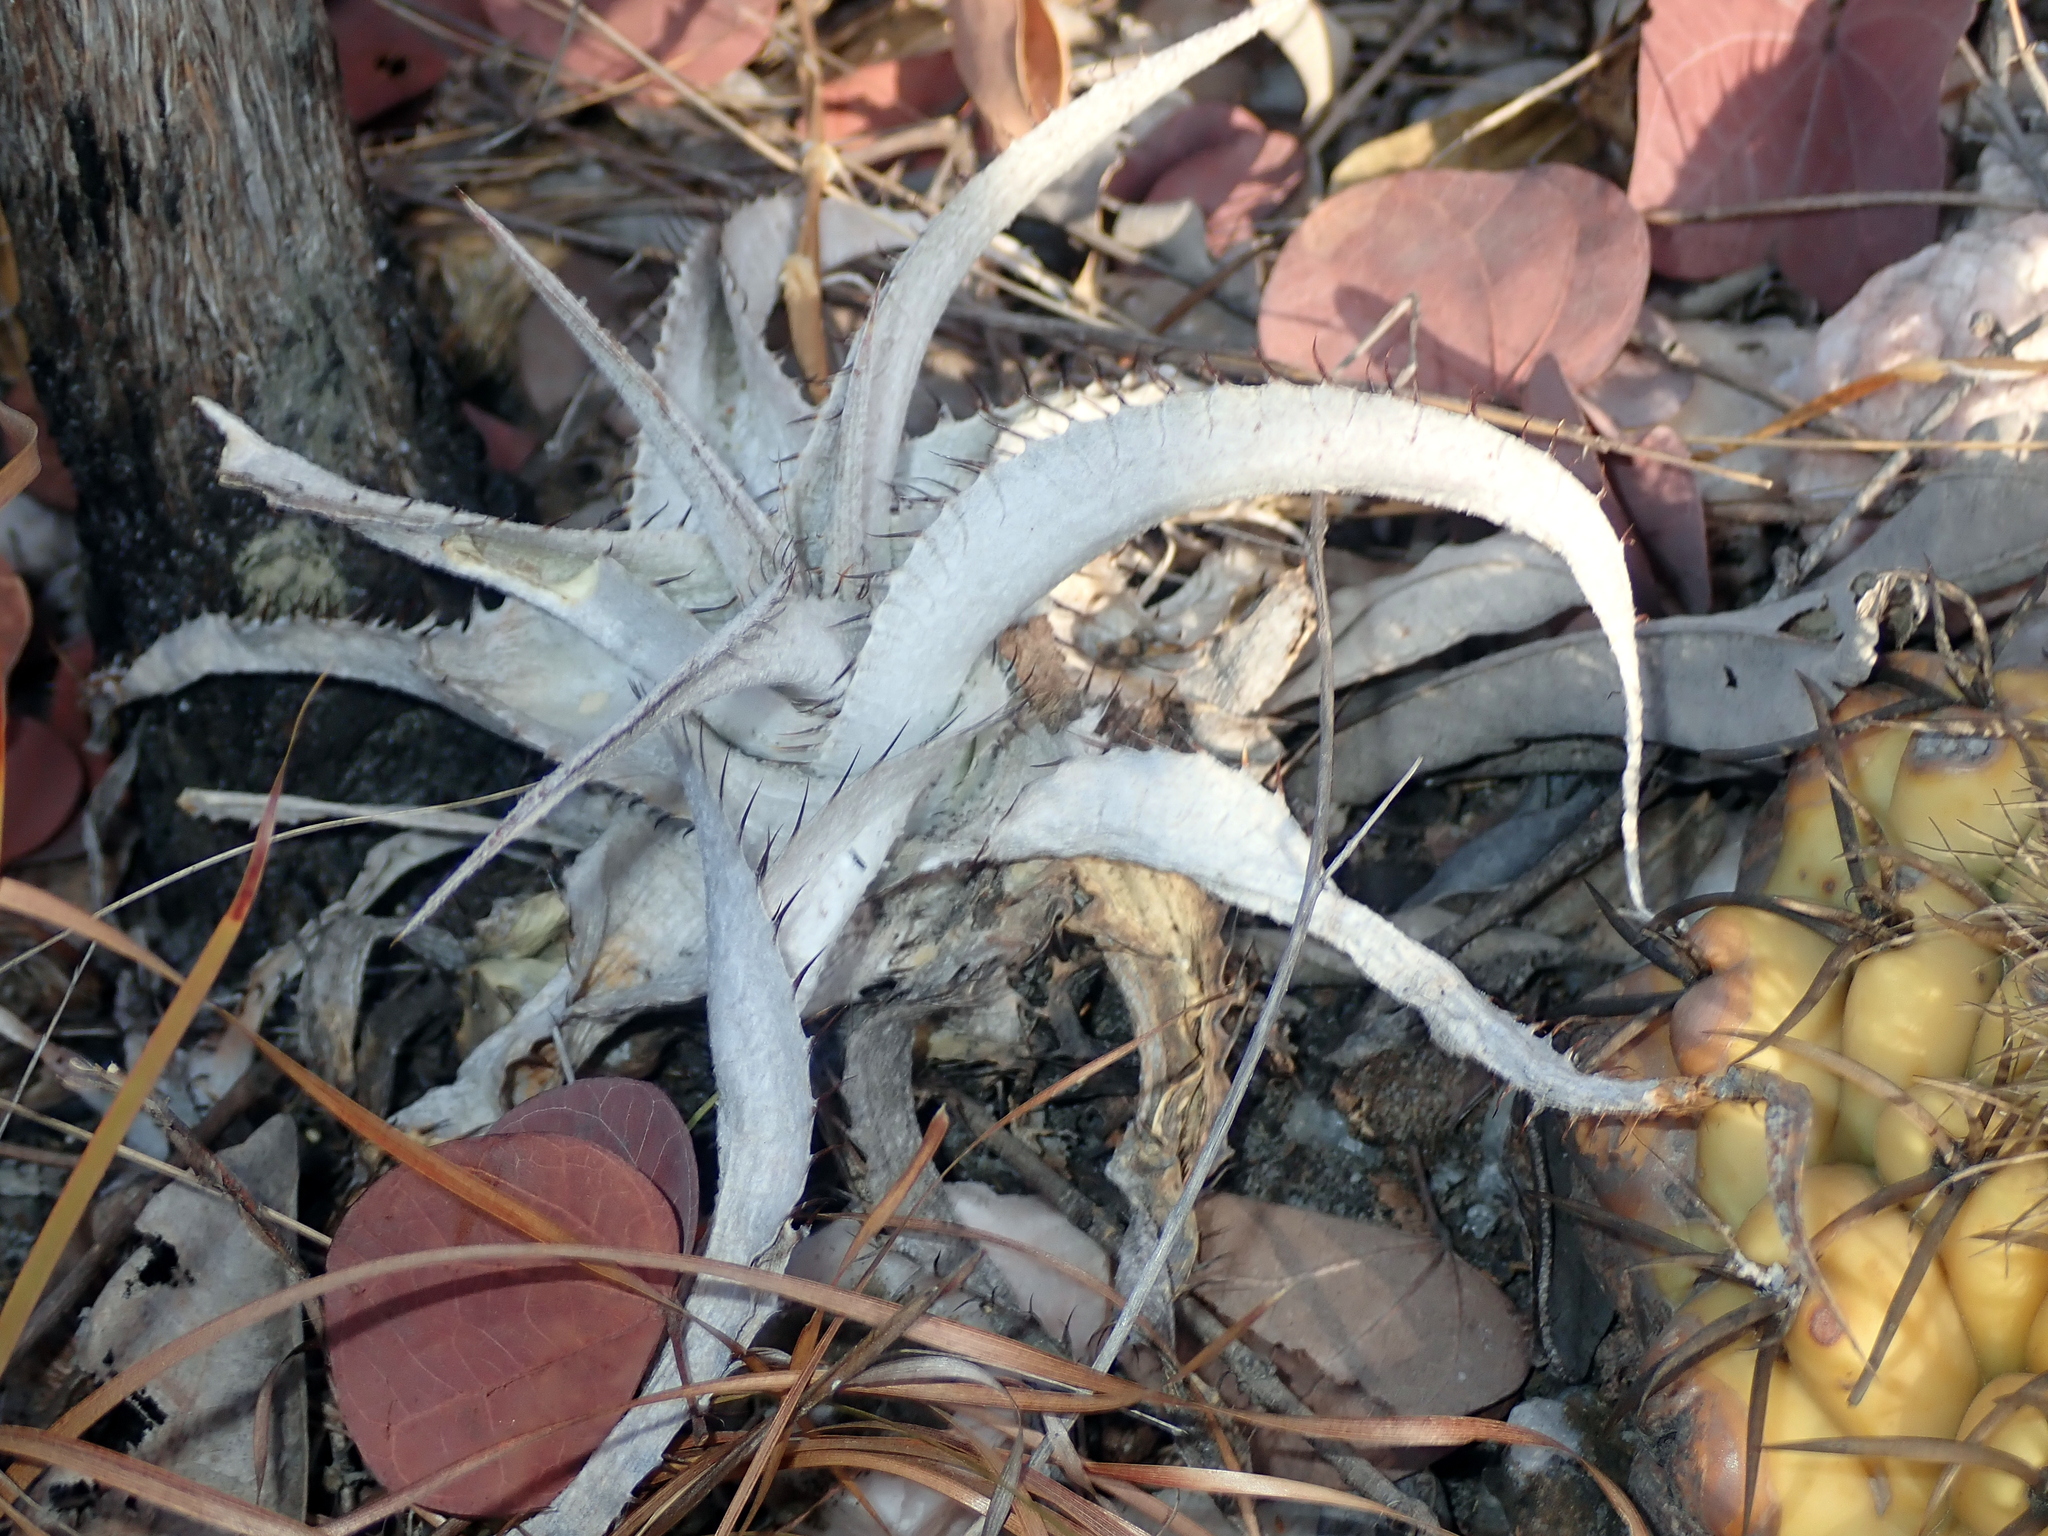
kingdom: Plantae
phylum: Tracheophyta
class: Liliopsida
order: Poales
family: Bromeliaceae
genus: Dyckia
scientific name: Dyckia braunii
